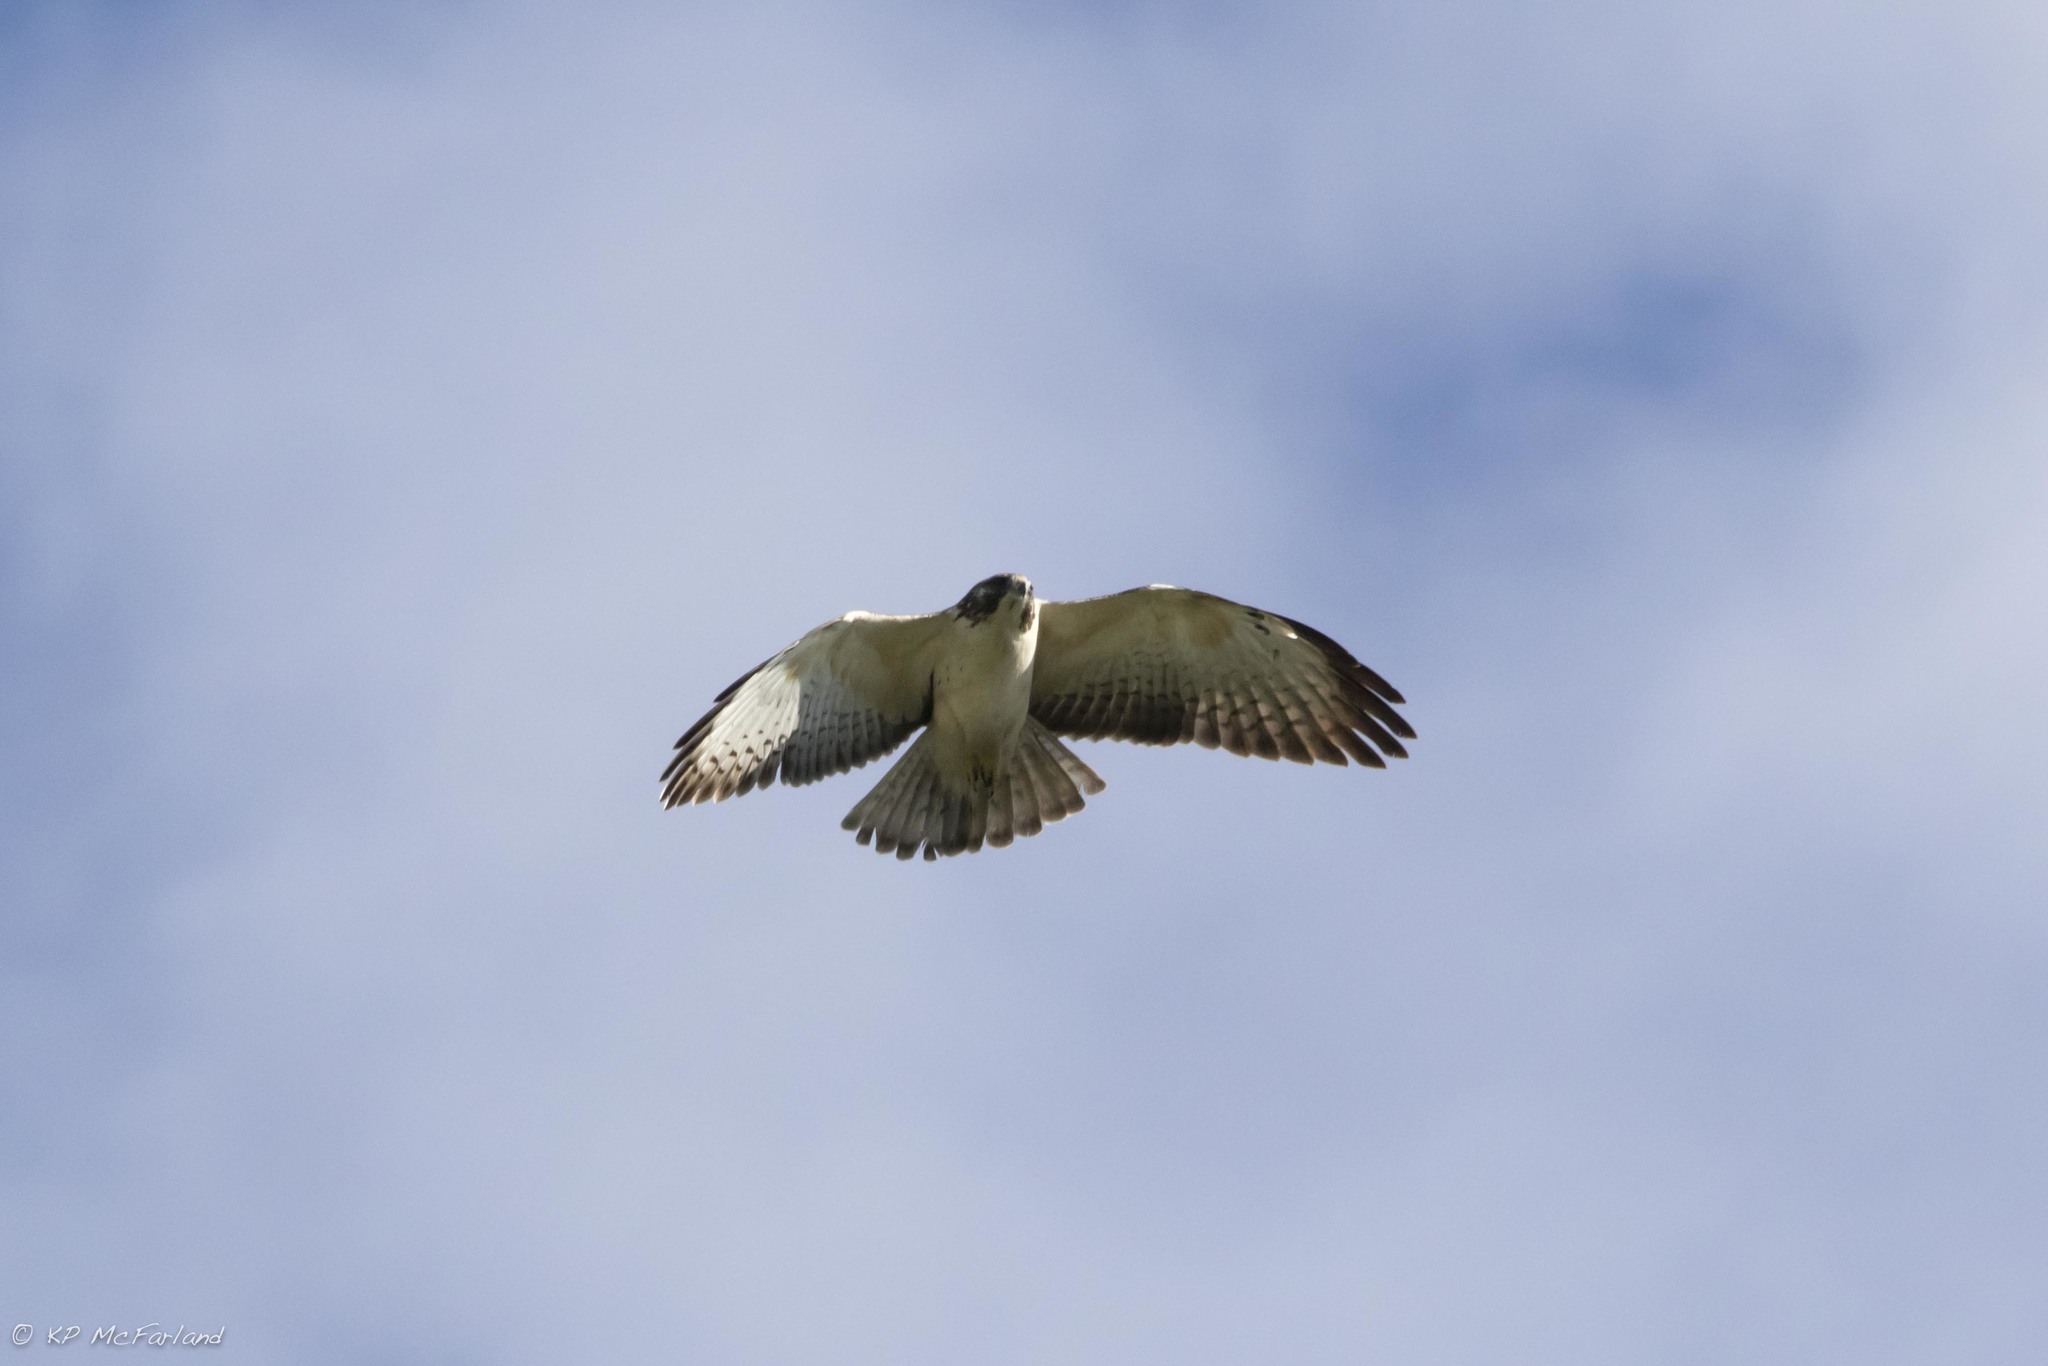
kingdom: Animalia
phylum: Chordata
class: Aves
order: Accipitriformes
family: Accipitridae
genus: Buteo
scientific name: Buteo brachyurus
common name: Short-tailed hawk
